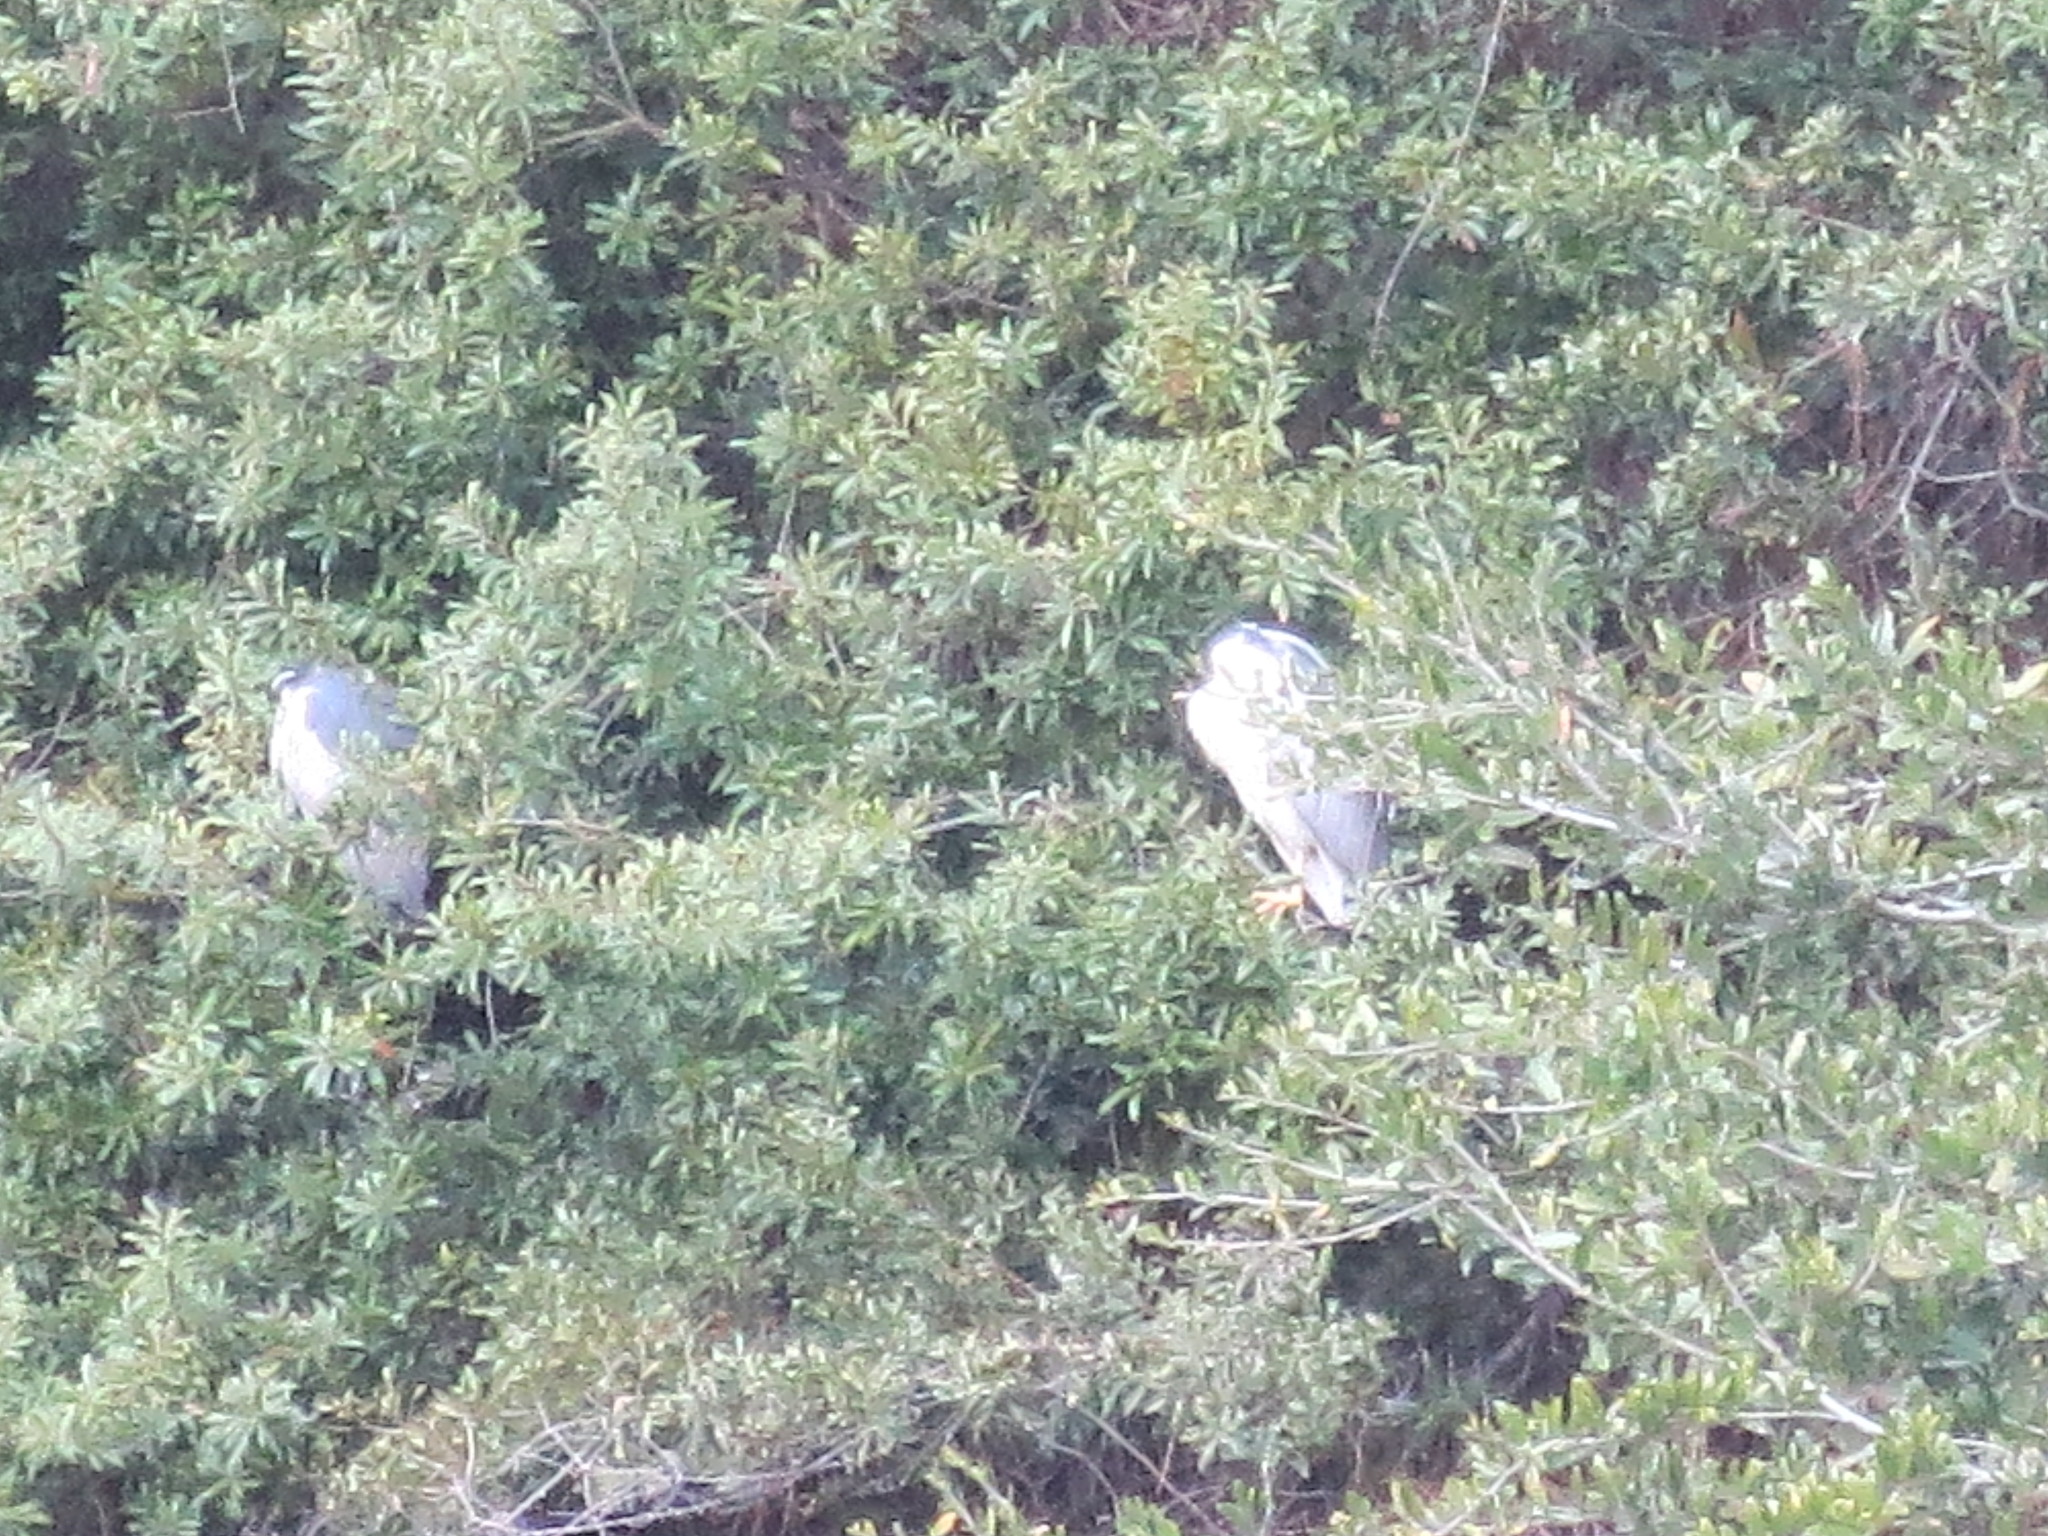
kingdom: Animalia
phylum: Chordata
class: Aves
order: Pelecaniformes
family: Ardeidae
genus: Nycticorax
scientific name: Nycticorax nycticorax
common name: Black-crowned night heron
